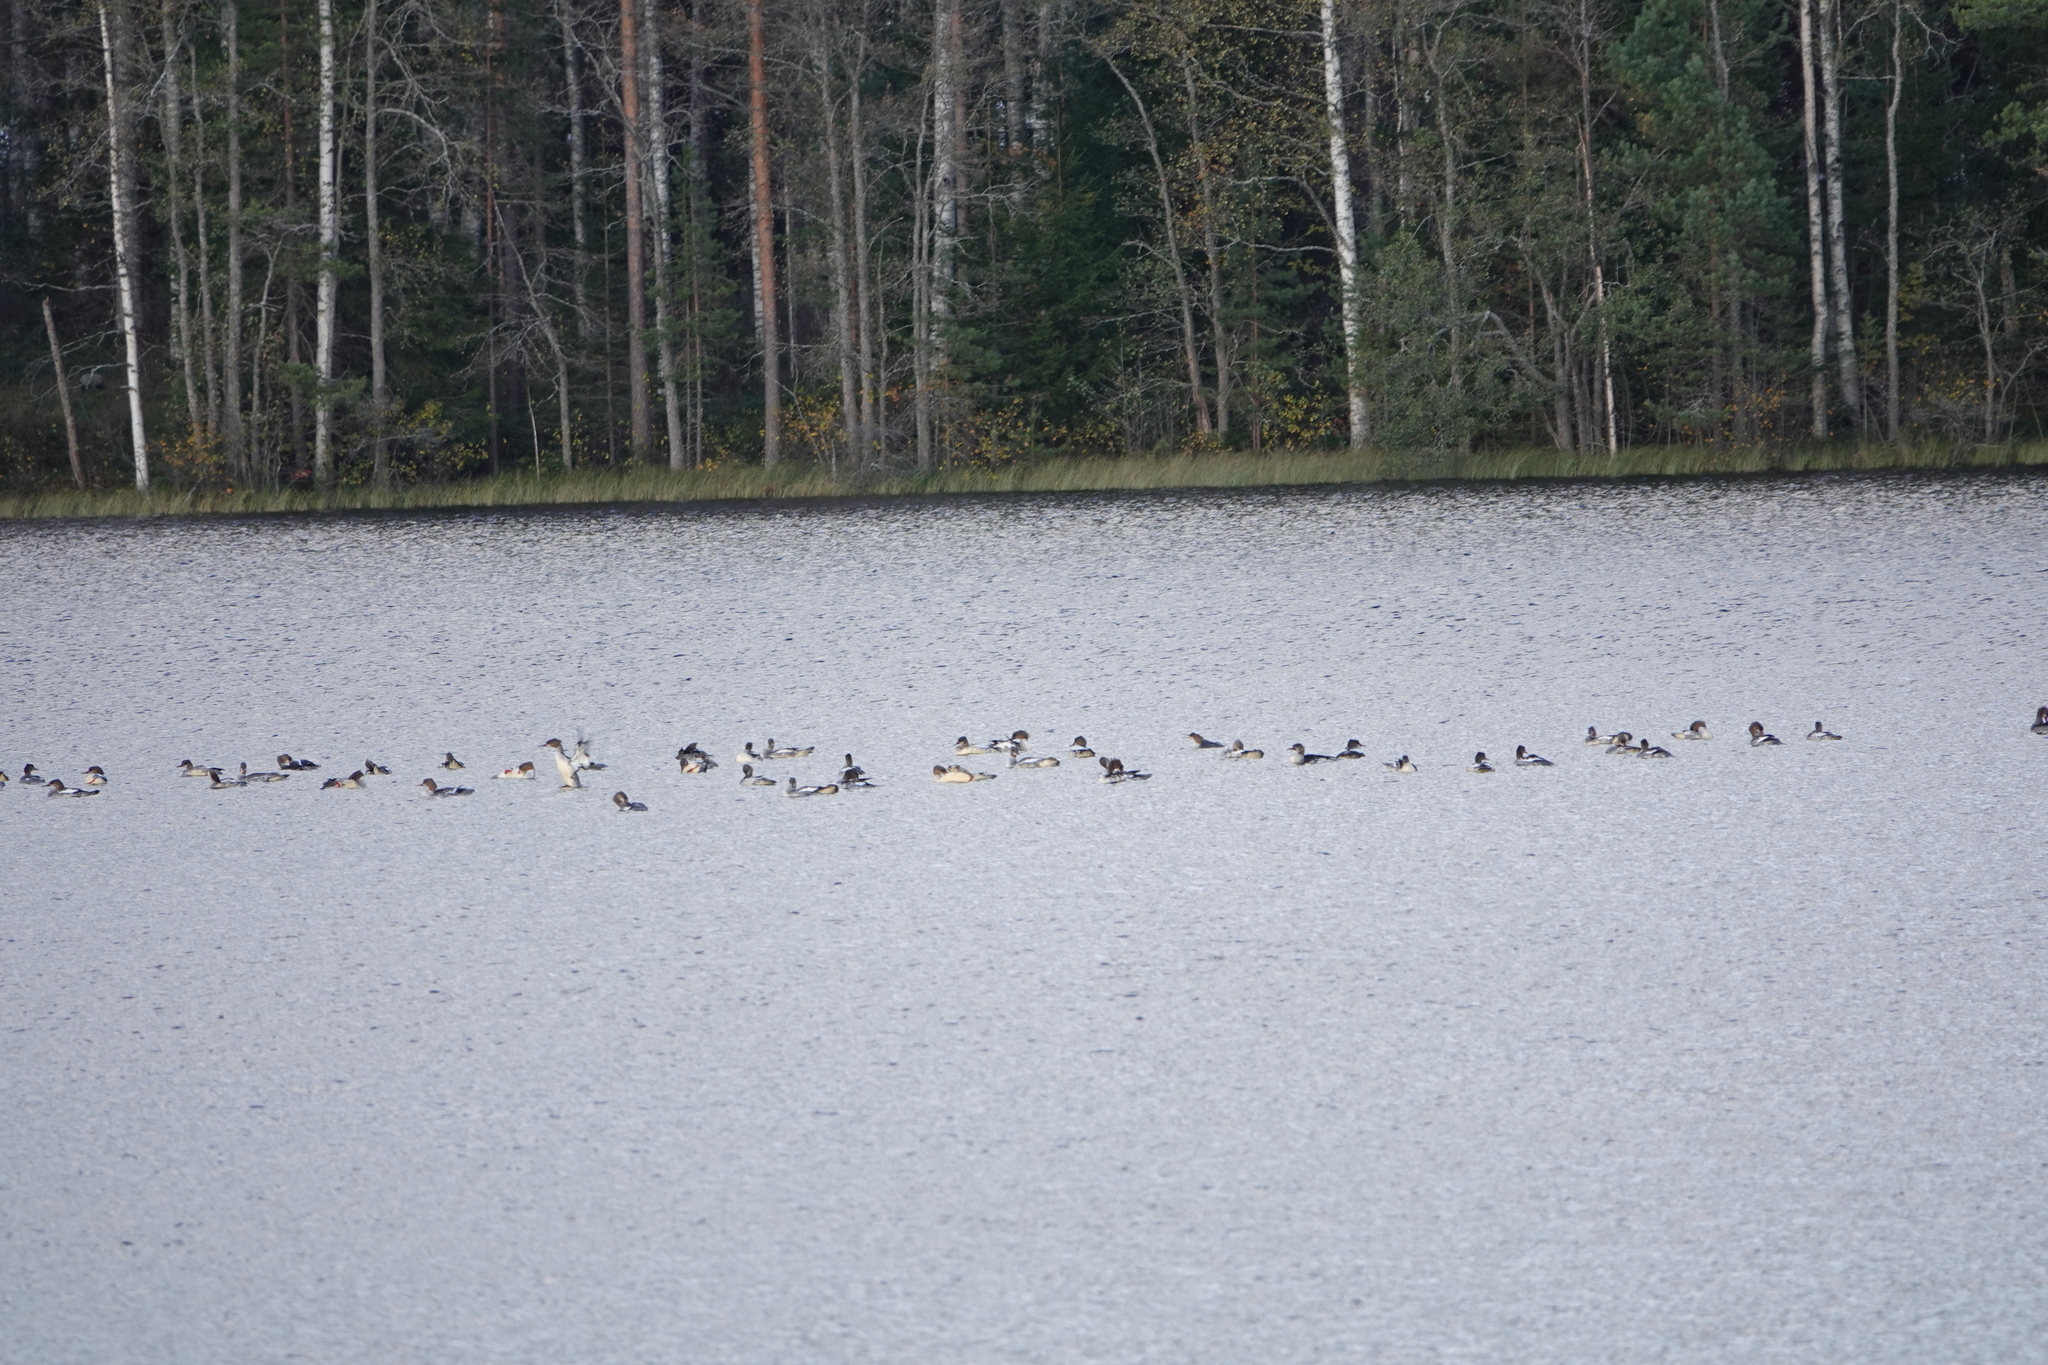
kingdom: Animalia
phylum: Chordata
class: Aves
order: Anseriformes
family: Anatidae
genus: Mergus
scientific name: Mergus merganser
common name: Common merganser
